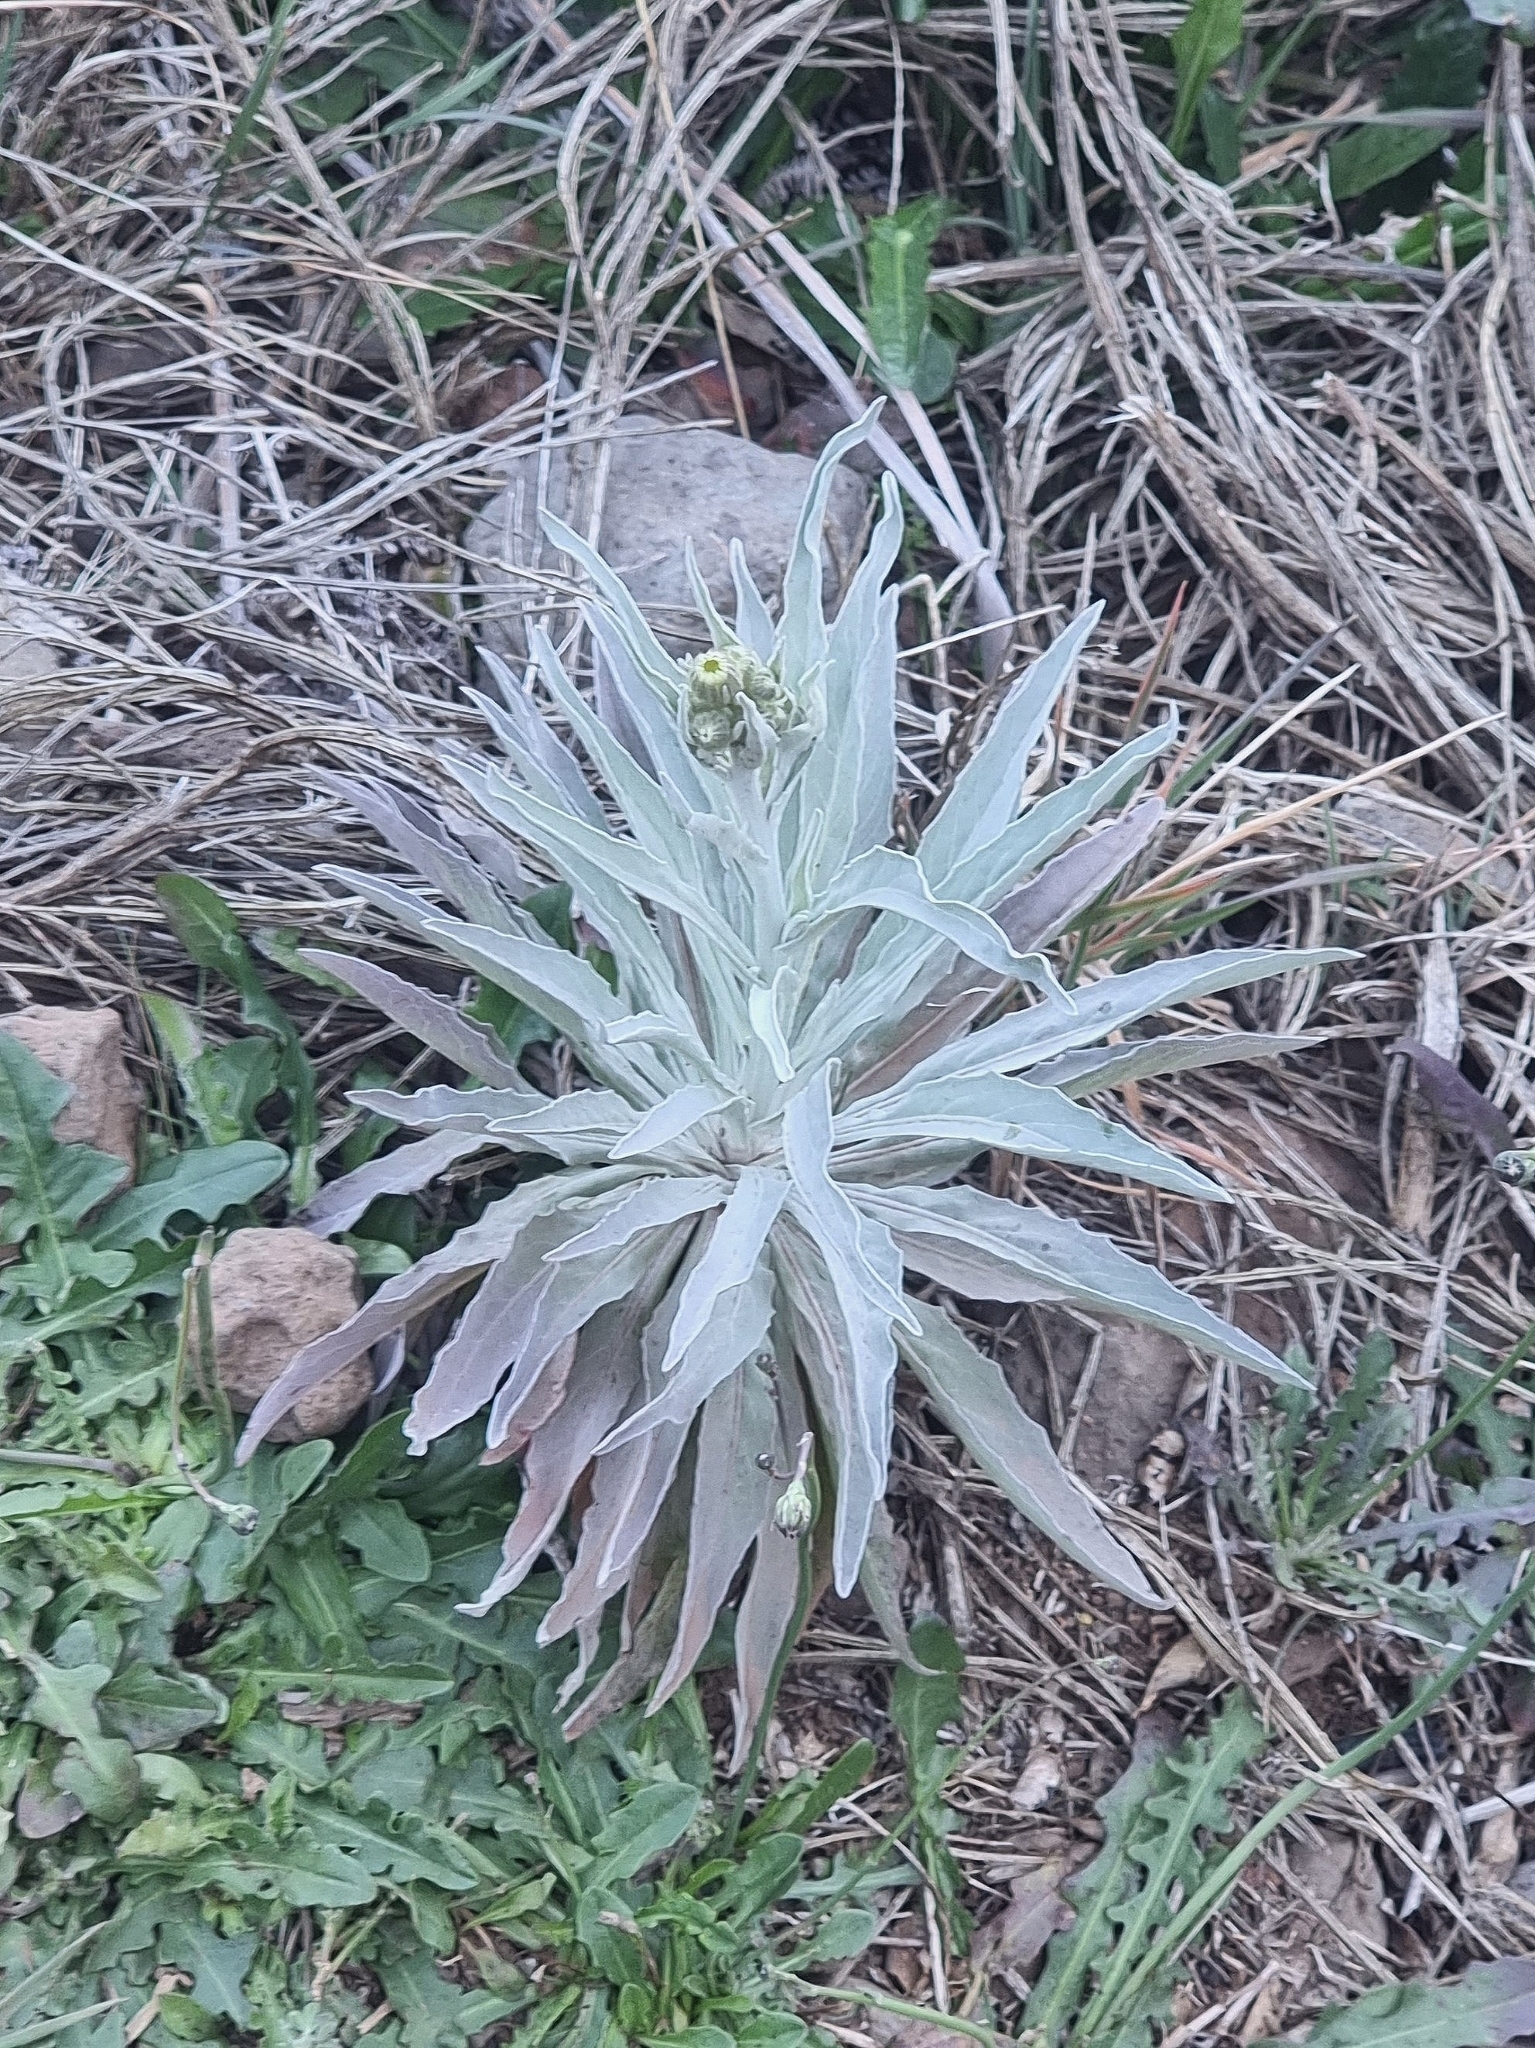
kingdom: Plantae
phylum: Tracheophyta
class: Magnoliopsida
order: Asterales
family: Asteraceae
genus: Andryala
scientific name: Andryala glandulosa
